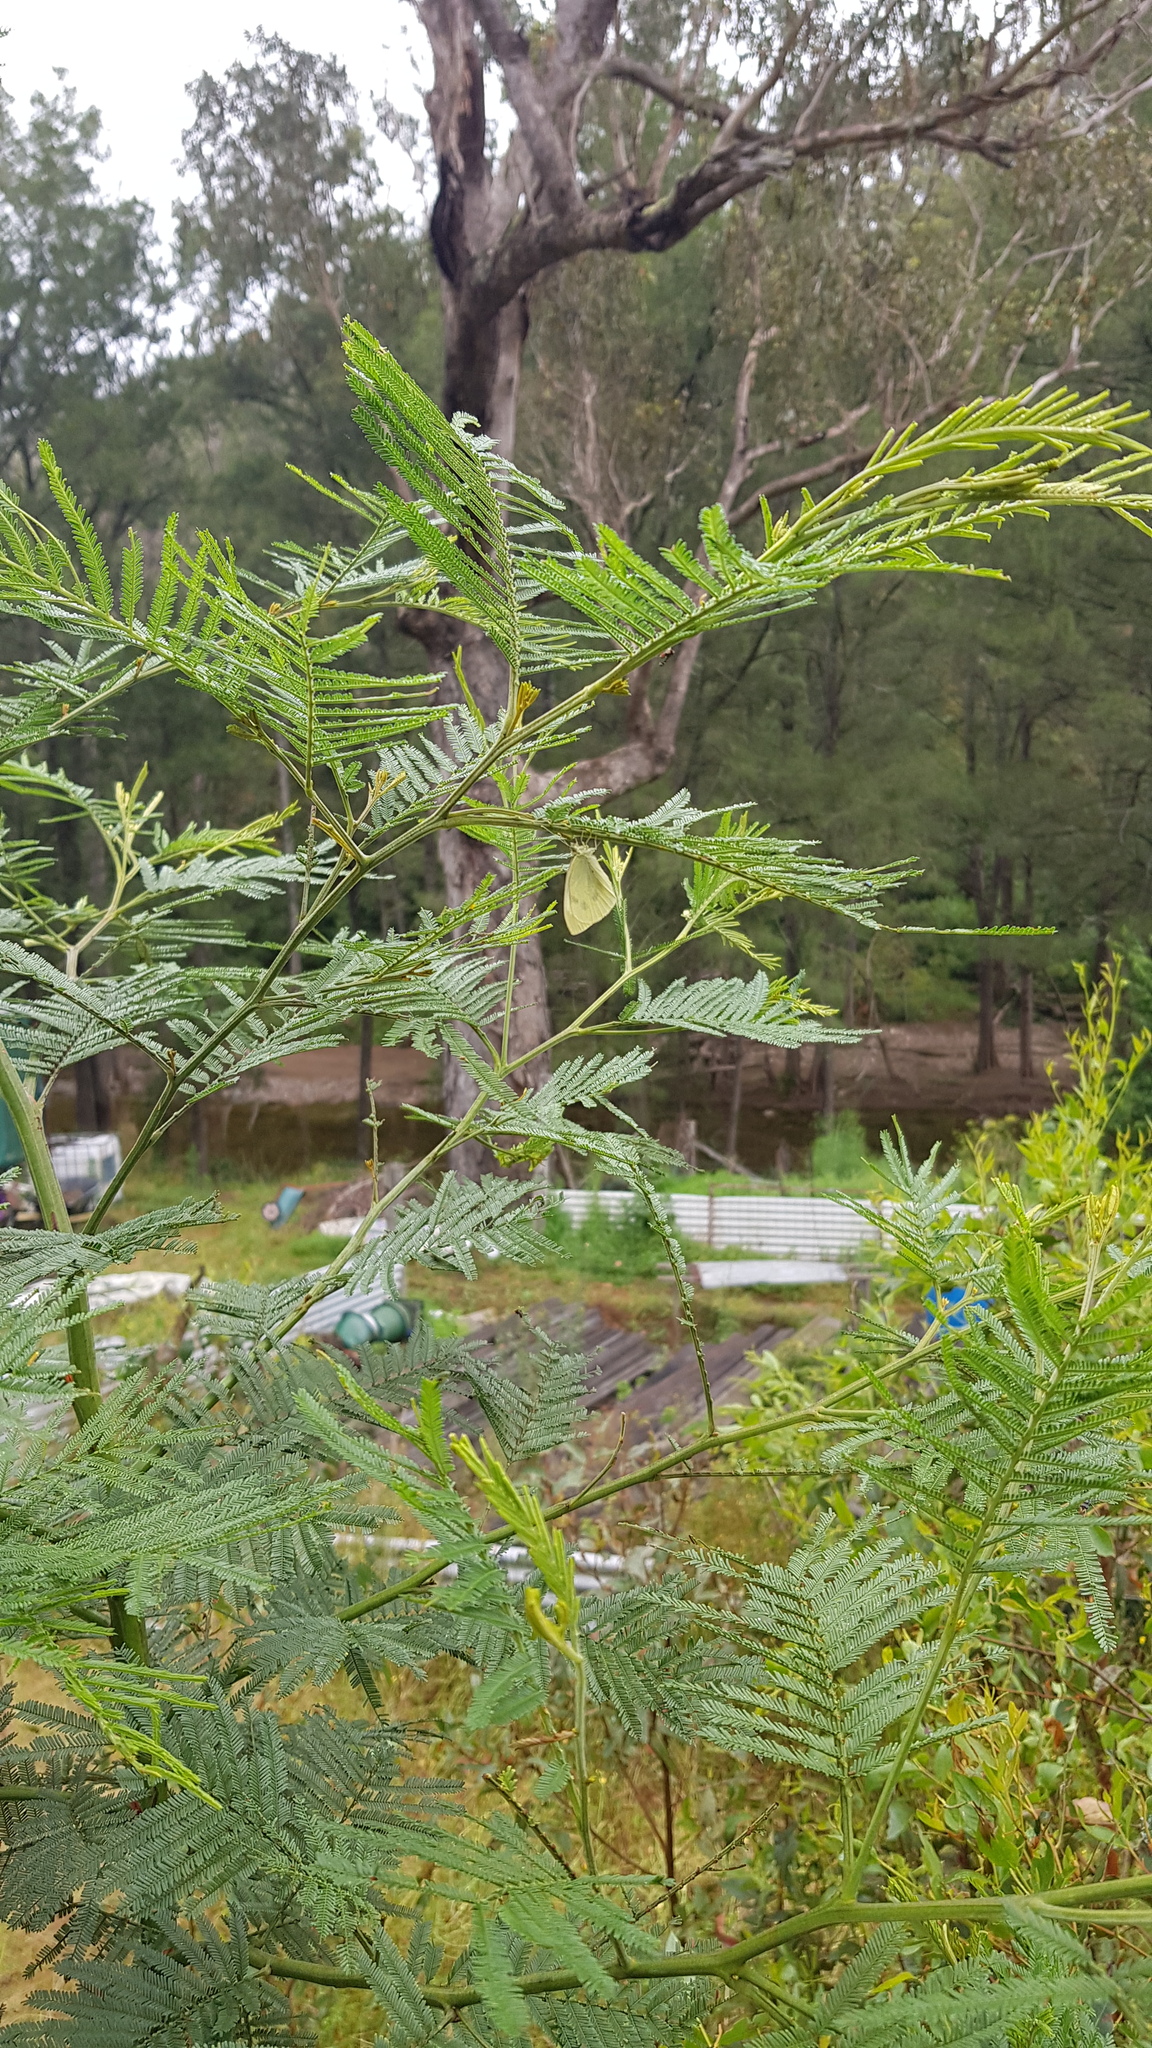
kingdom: Animalia
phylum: Arthropoda
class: Insecta
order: Lepidoptera
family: Pieridae
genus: Pieris
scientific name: Pieris rapae
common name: Small white
